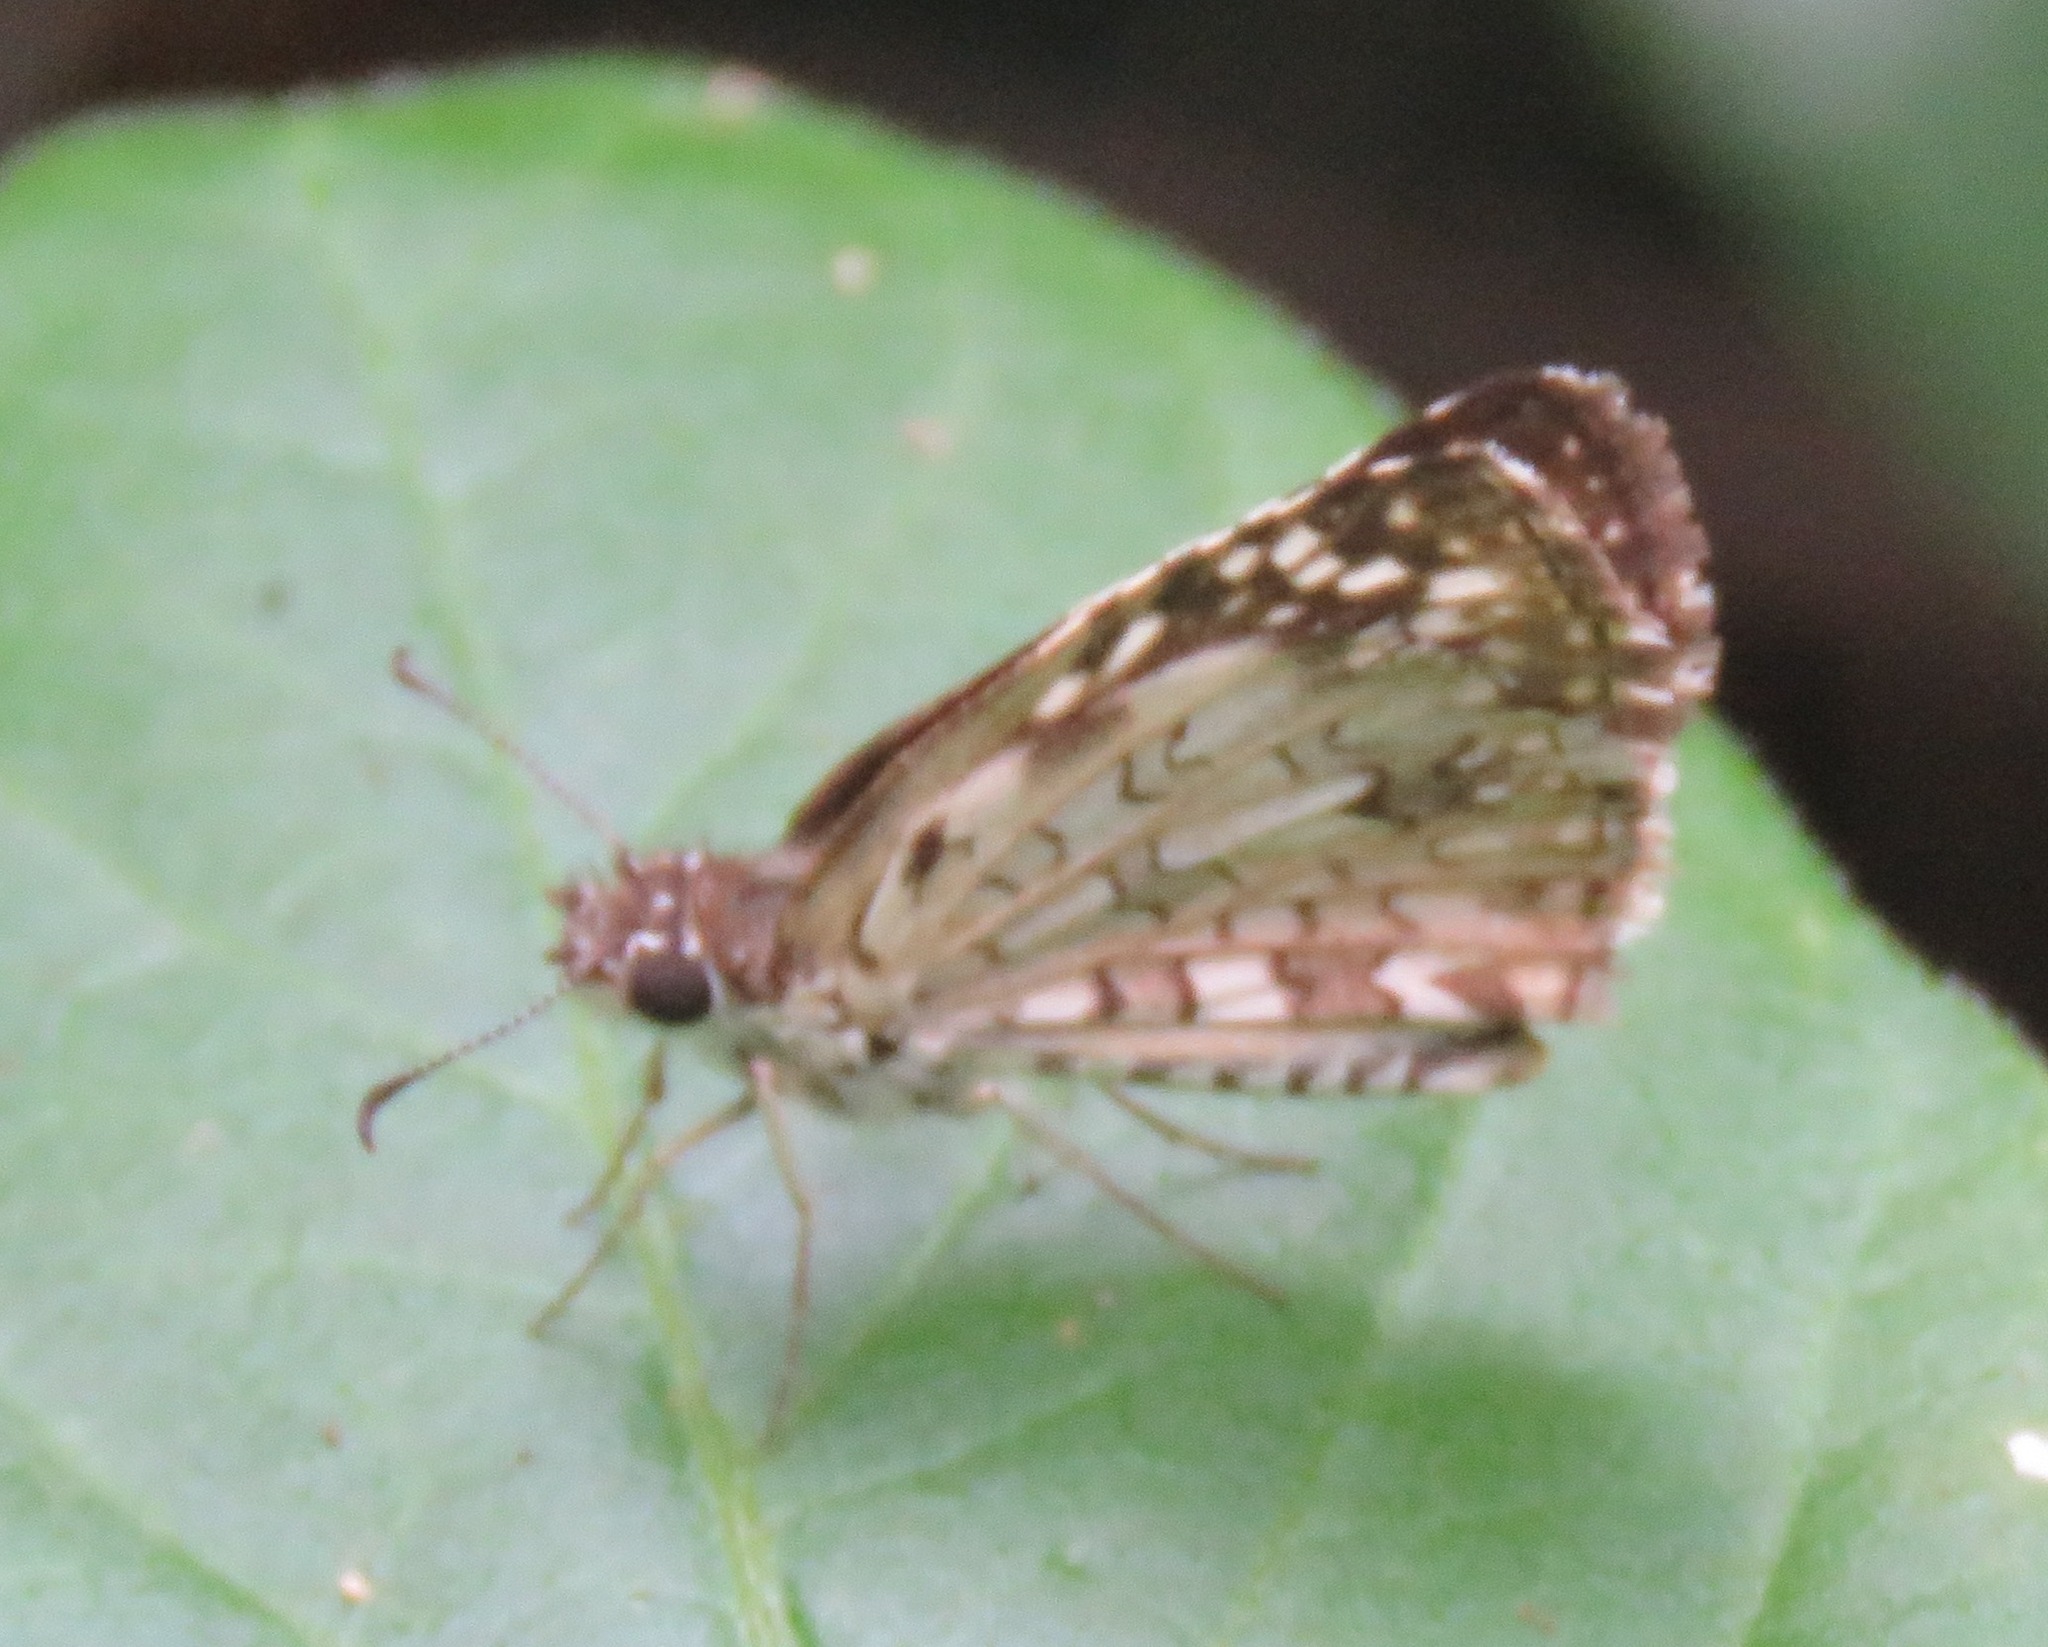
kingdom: Animalia
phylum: Arthropoda
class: Insecta
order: Lepidoptera
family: Hesperiidae
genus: Pyrgus
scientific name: Pyrgus oileus
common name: Tropical checkered-skipper
